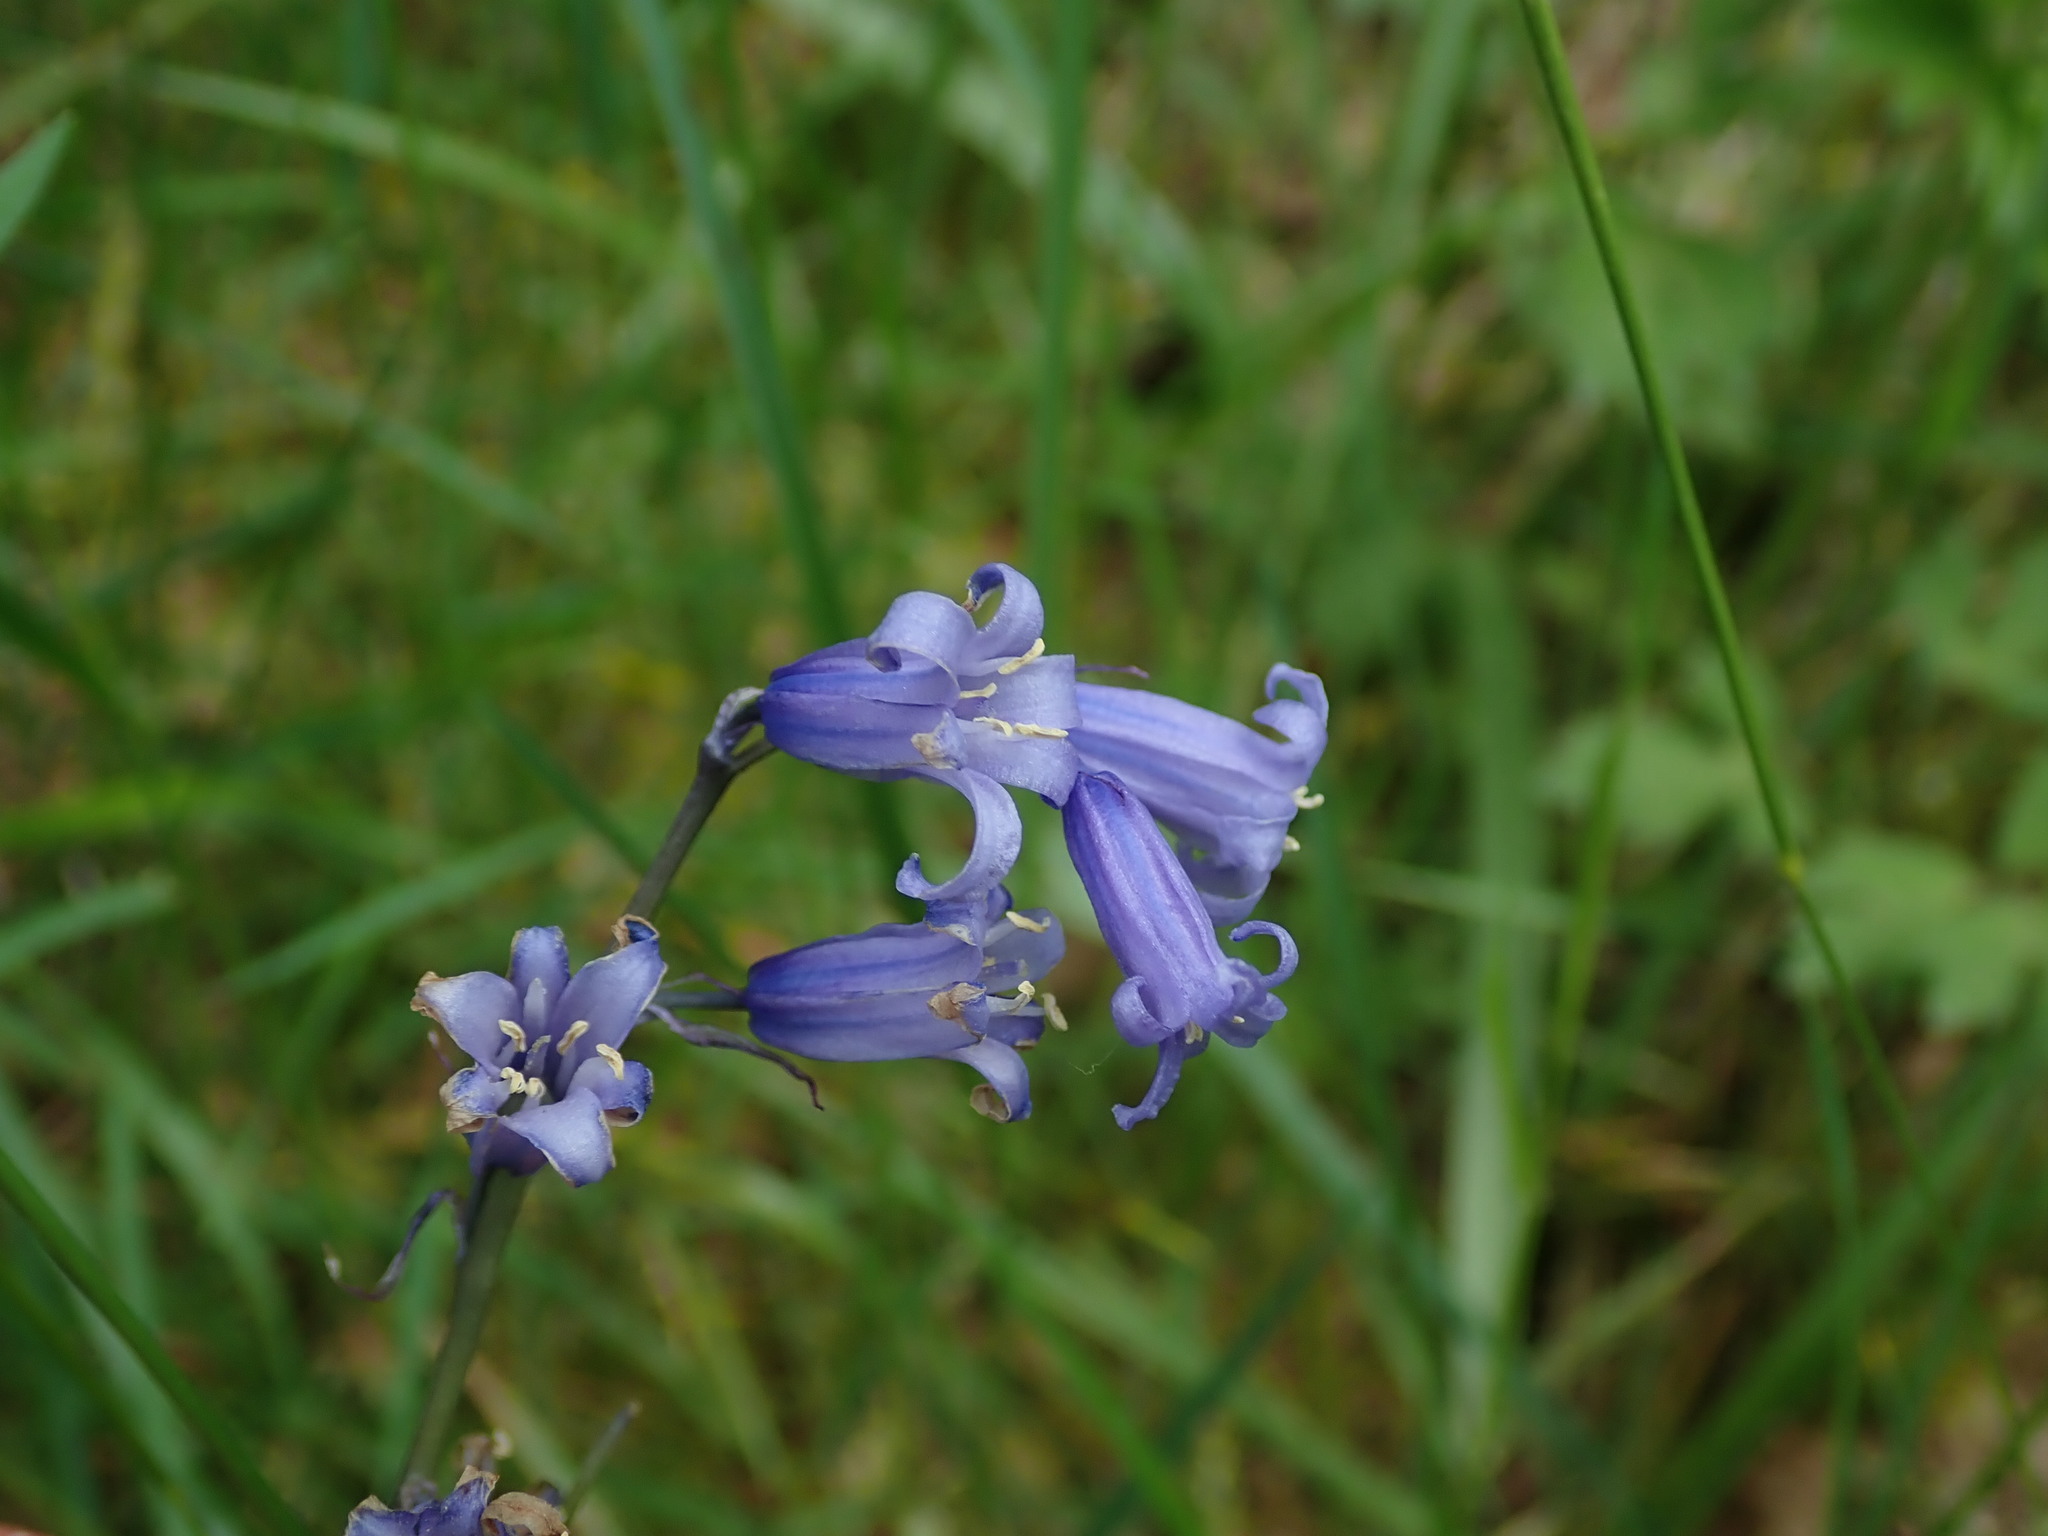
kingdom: Plantae
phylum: Tracheophyta
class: Liliopsida
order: Asparagales
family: Asparagaceae
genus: Hyacinthoides
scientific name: Hyacinthoides non-scripta
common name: Bluebell
